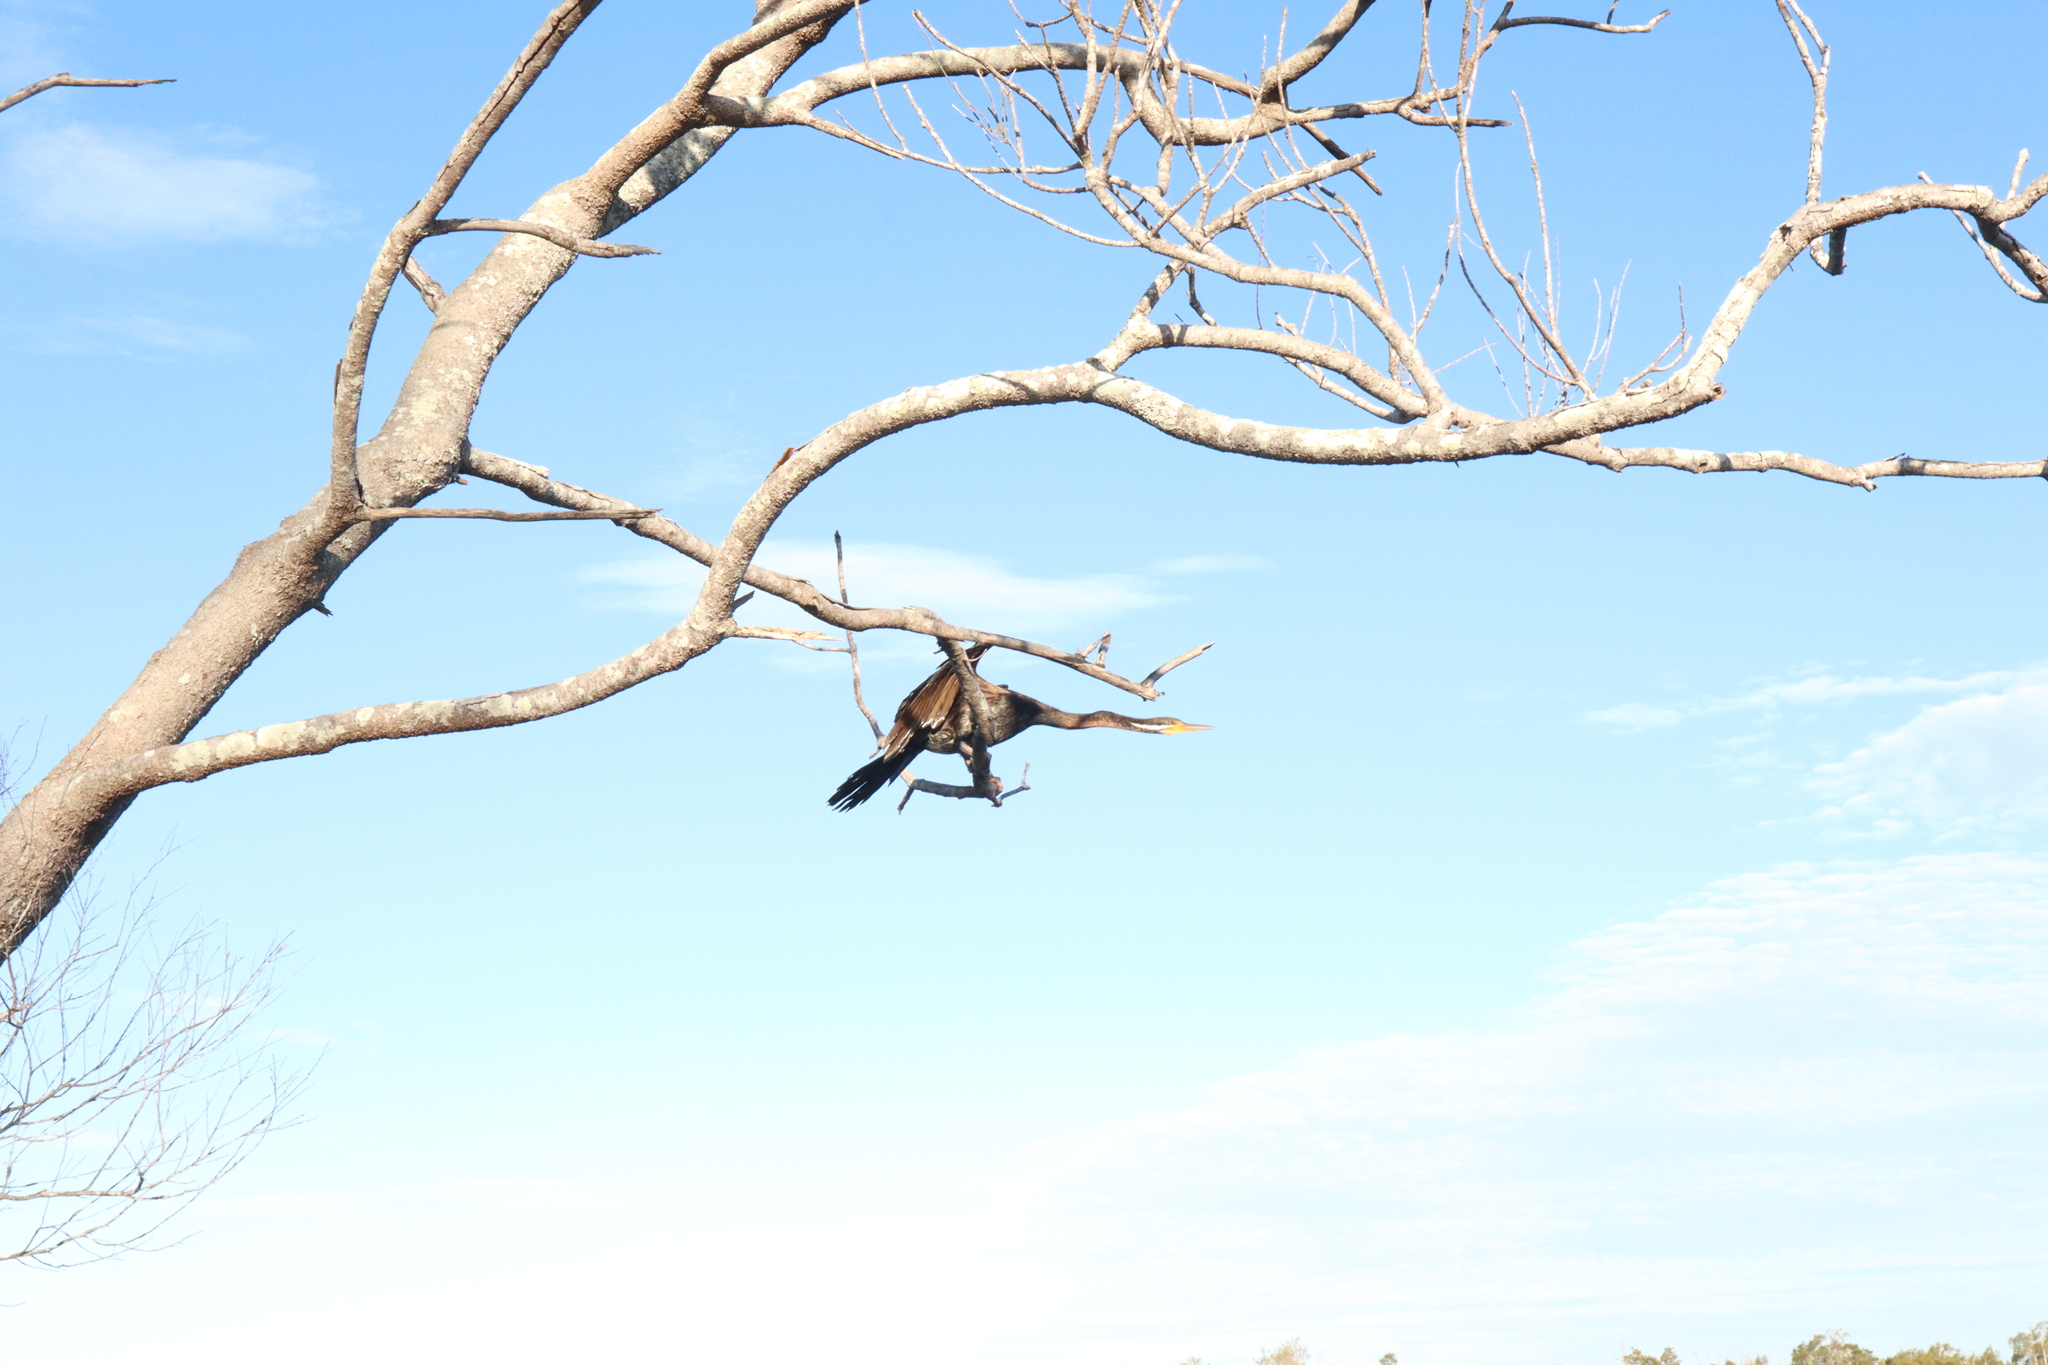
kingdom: Animalia
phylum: Chordata
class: Aves
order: Suliformes
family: Anhingidae
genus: Anhinga
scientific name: Anhinga novaehollandiae
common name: Australasian darter
